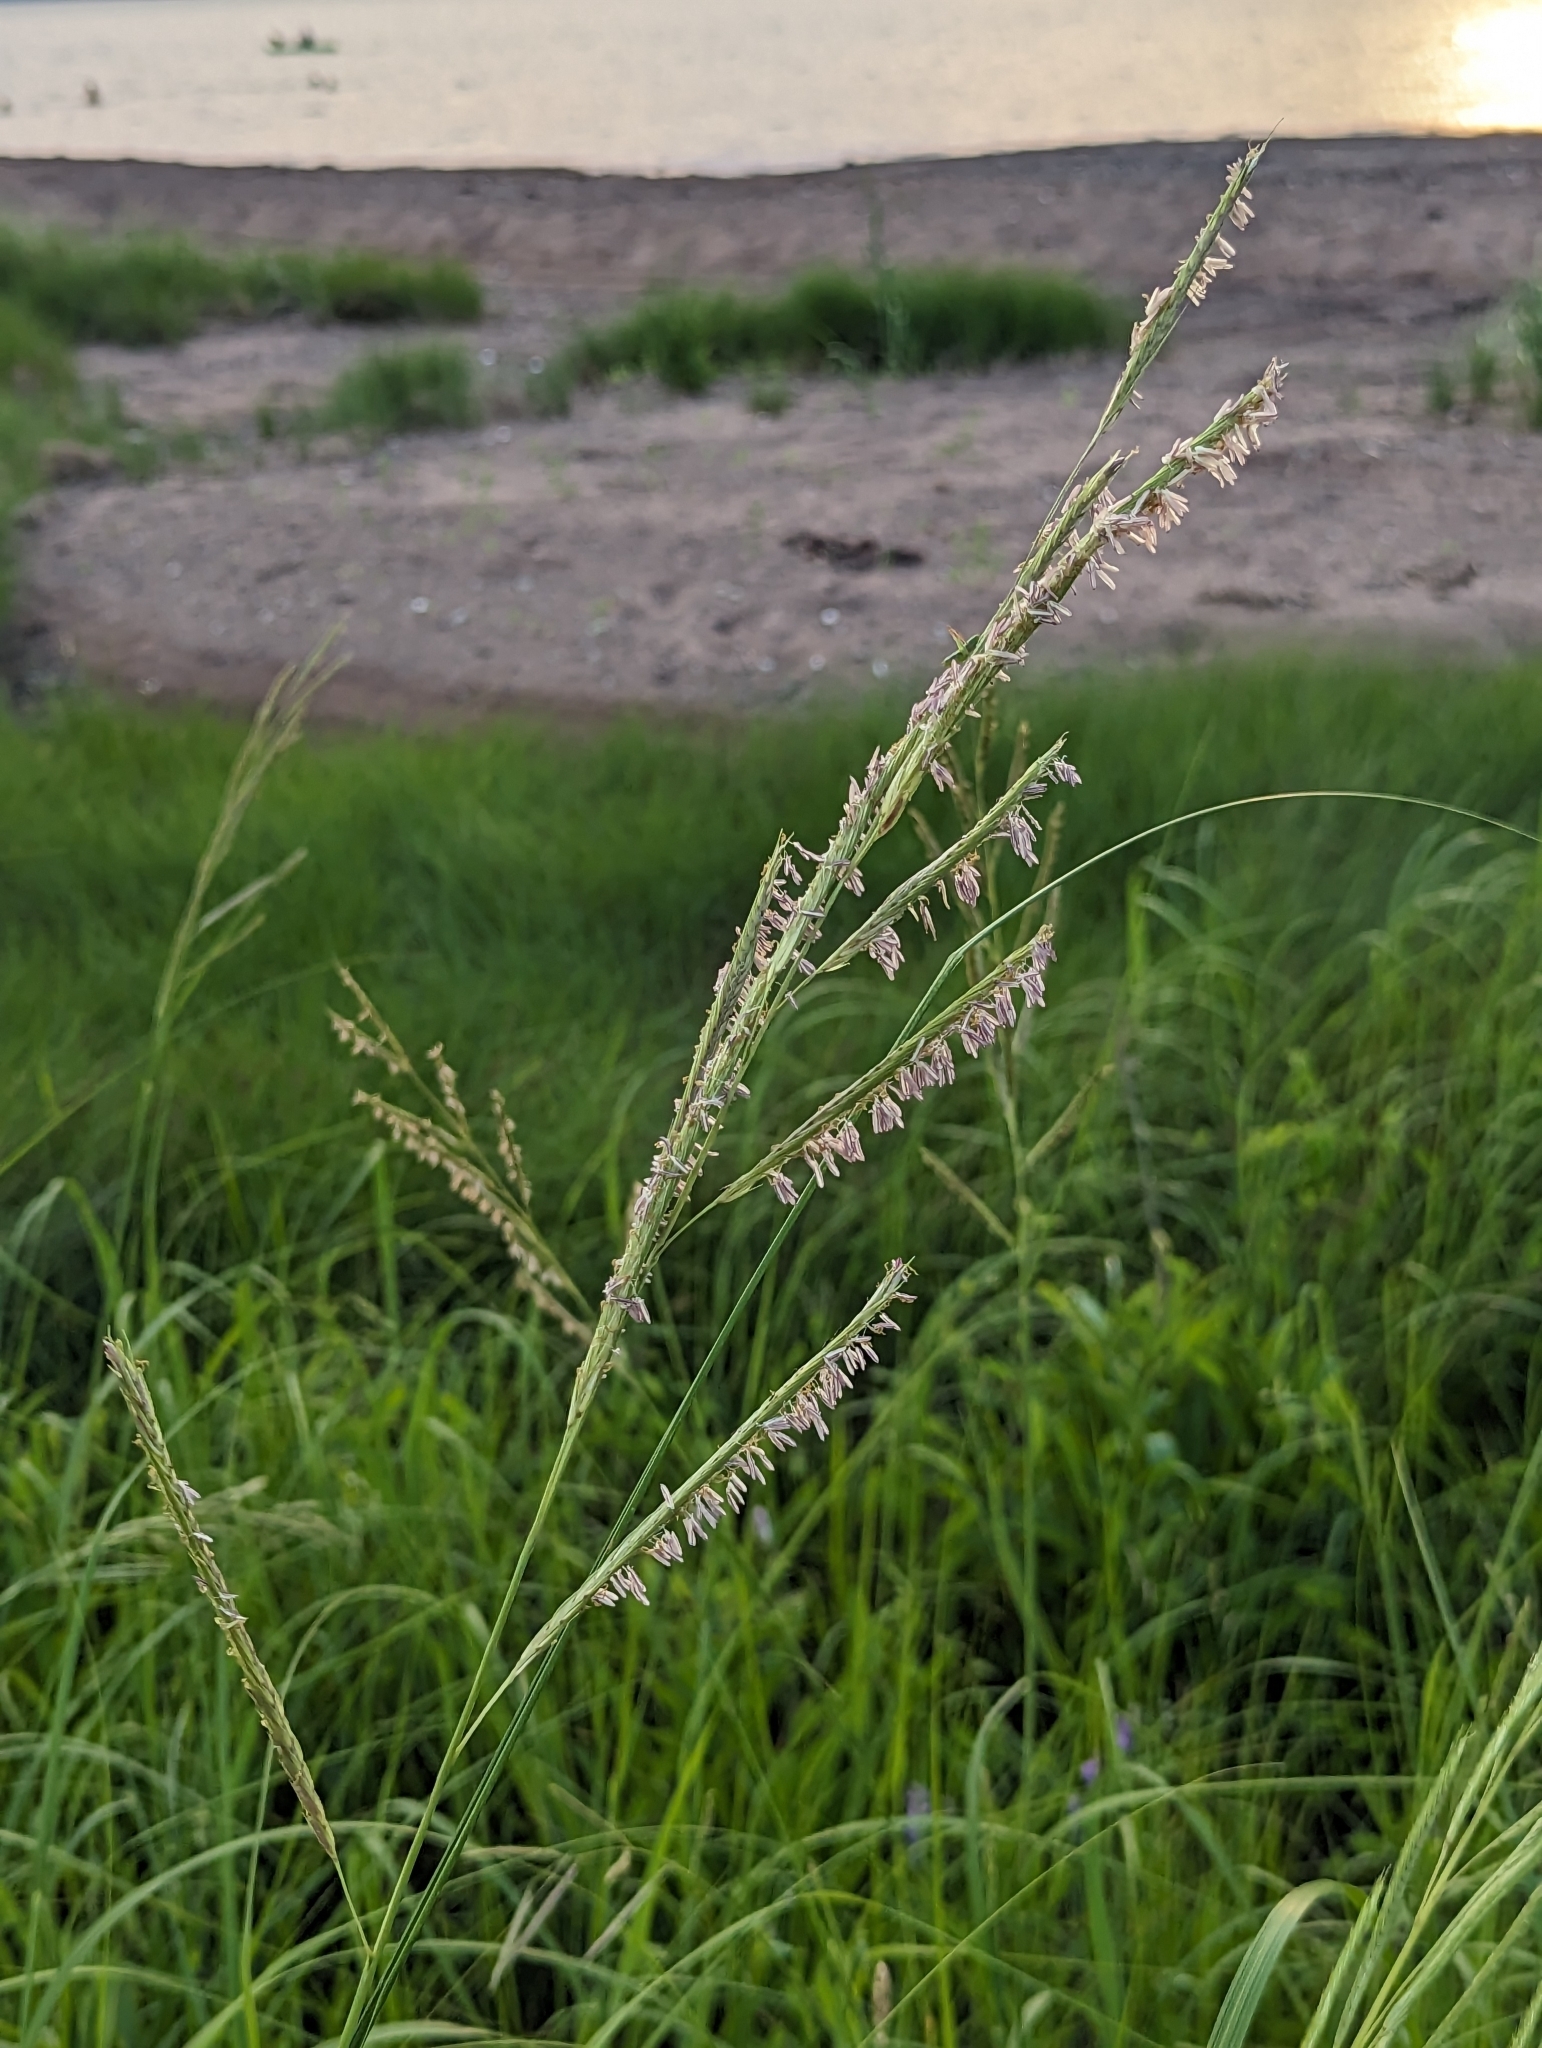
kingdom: Plantae
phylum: Tracheophyta
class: Liliopsida
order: Poales
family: Poaceae
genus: Sporobolus
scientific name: Sporobolus michauxianus
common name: Freshwater cordgrass
